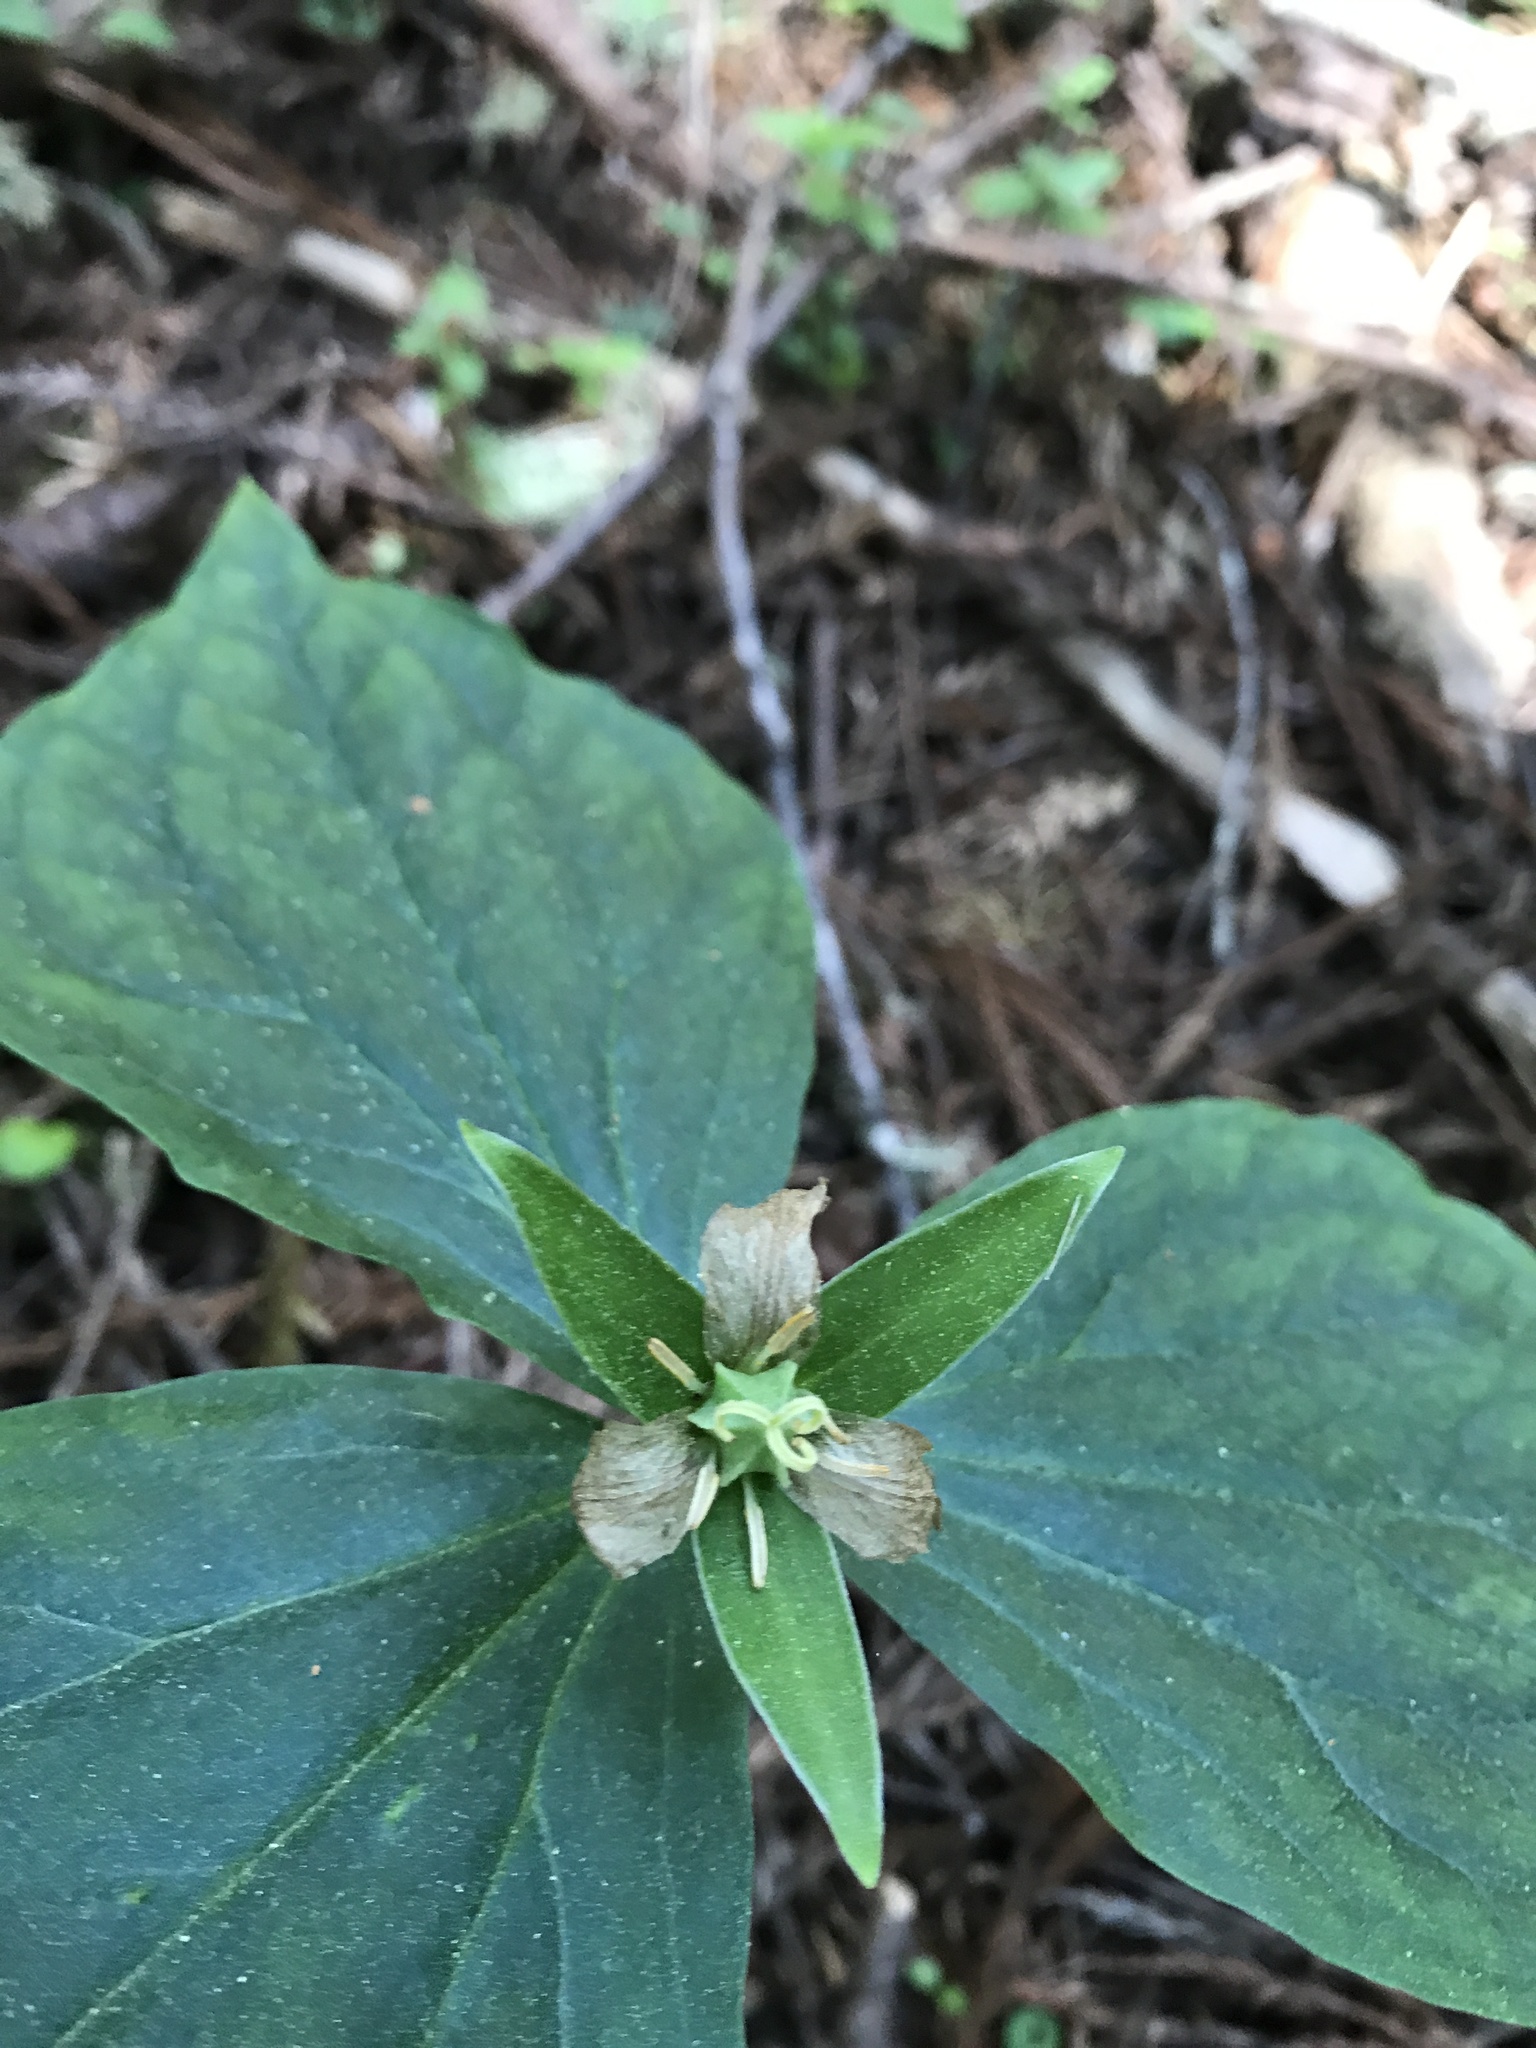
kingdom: Plantae
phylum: Tracheophyta
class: Liliopsida
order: Liliales
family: Melanthiaceae
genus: Trillium
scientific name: Trillium ovatum
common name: Pacific trillium
